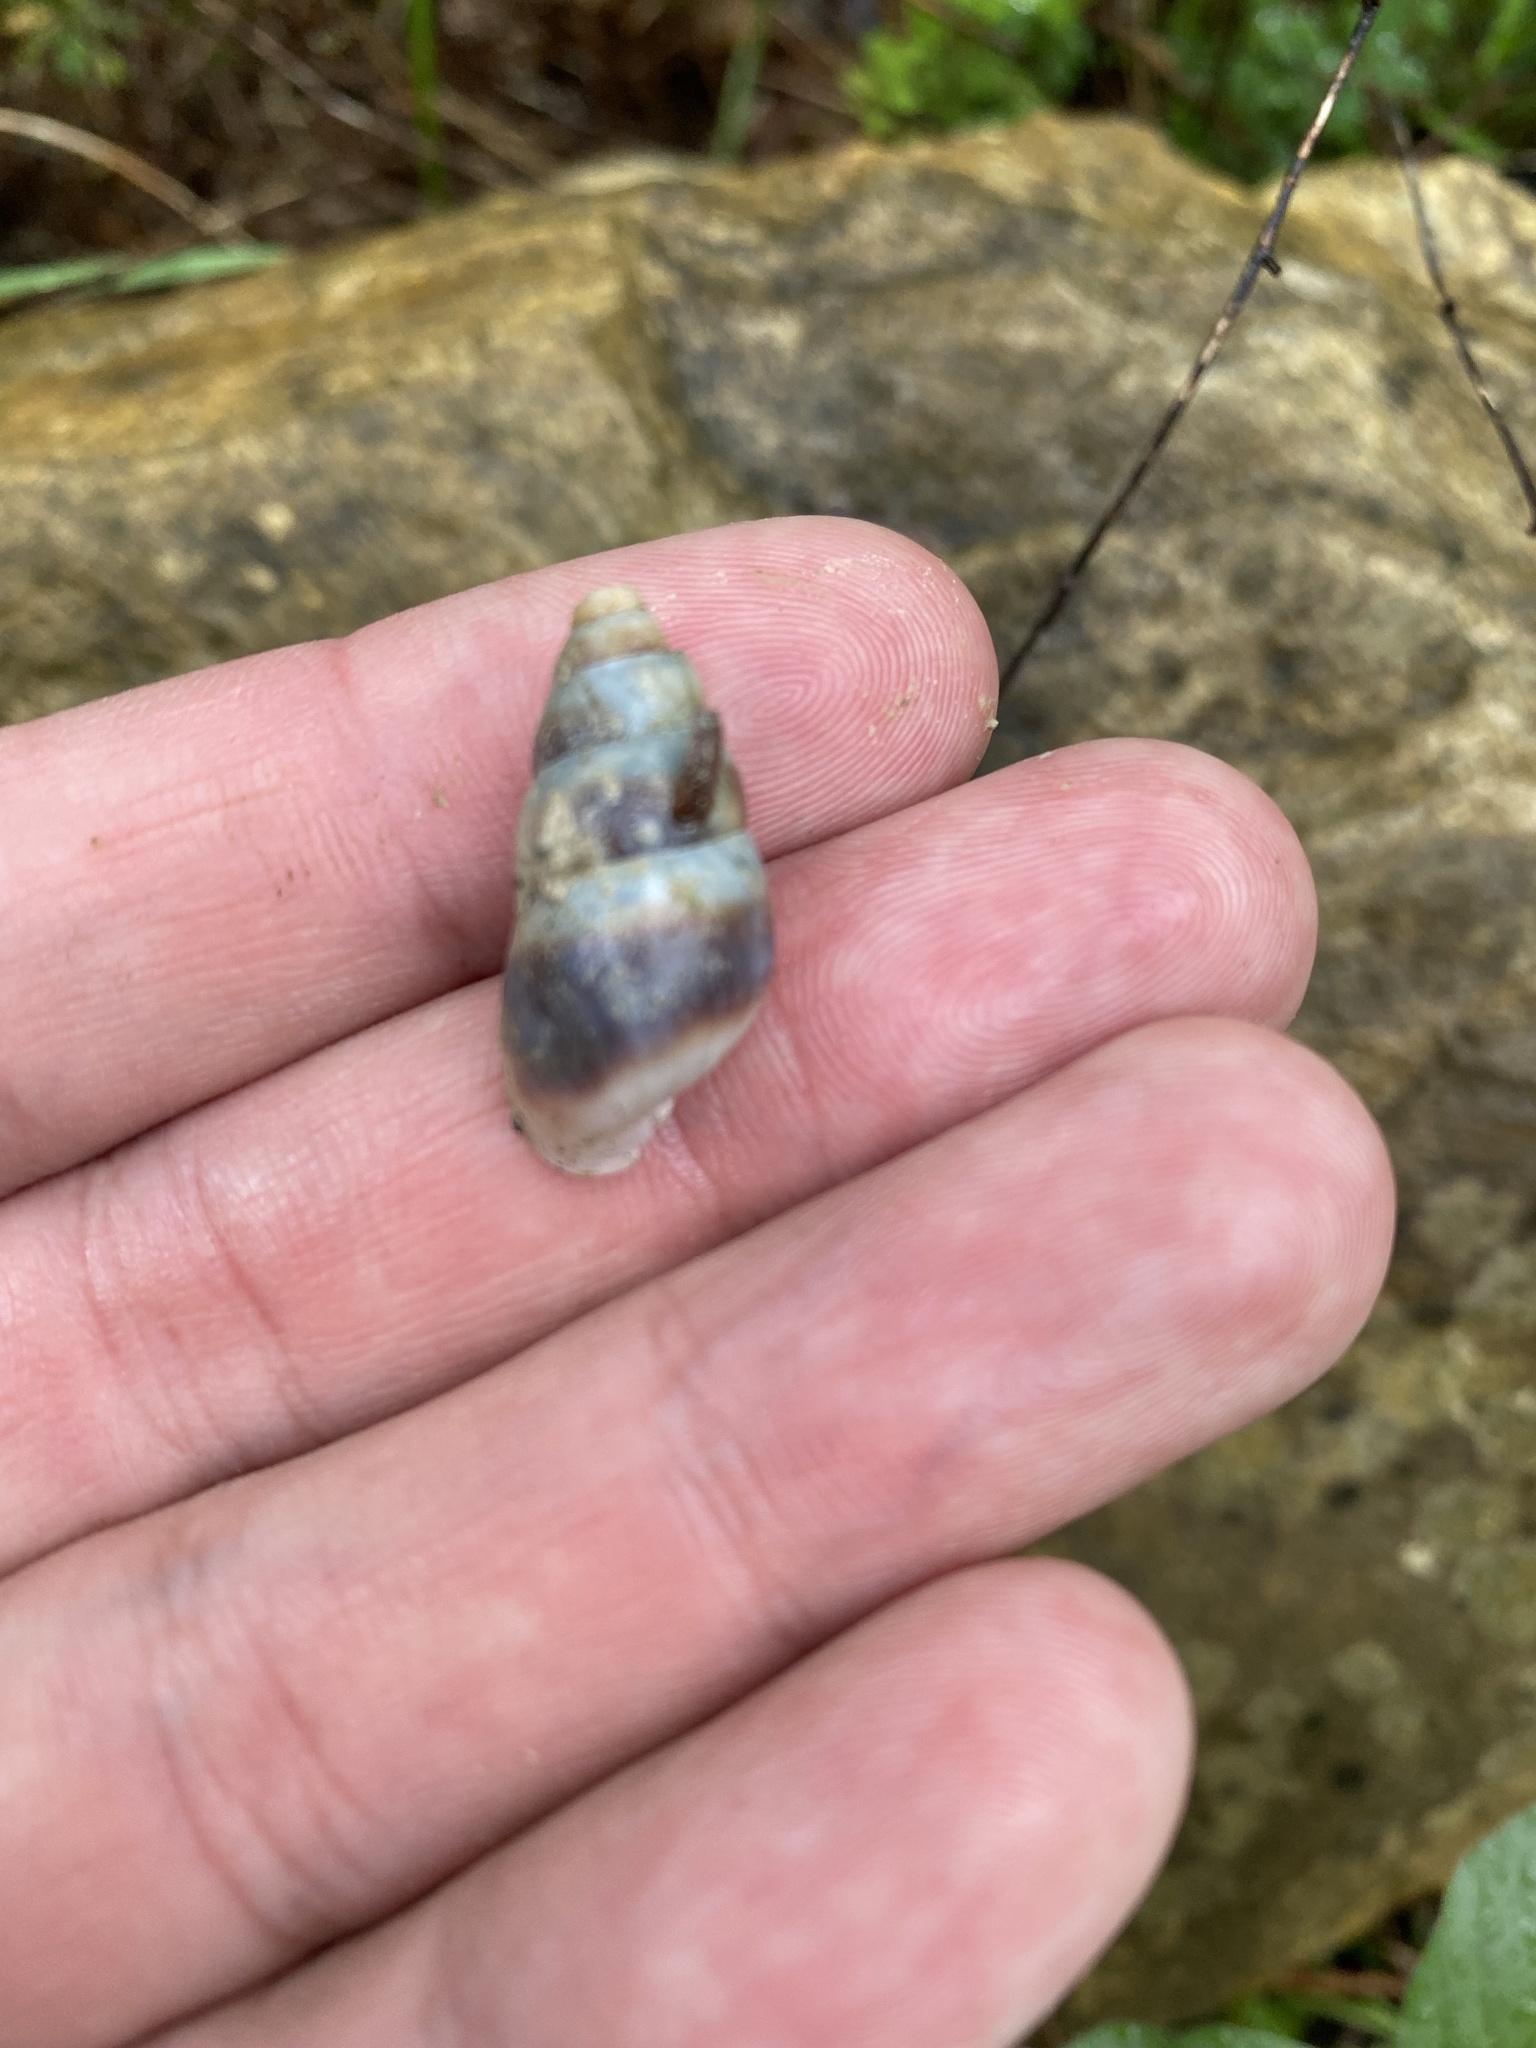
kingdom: Animalia
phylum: Mollusca
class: Gastropoda
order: Stylommatophora
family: Enidae
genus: Caucasicola
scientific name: Caucasicola raddei
